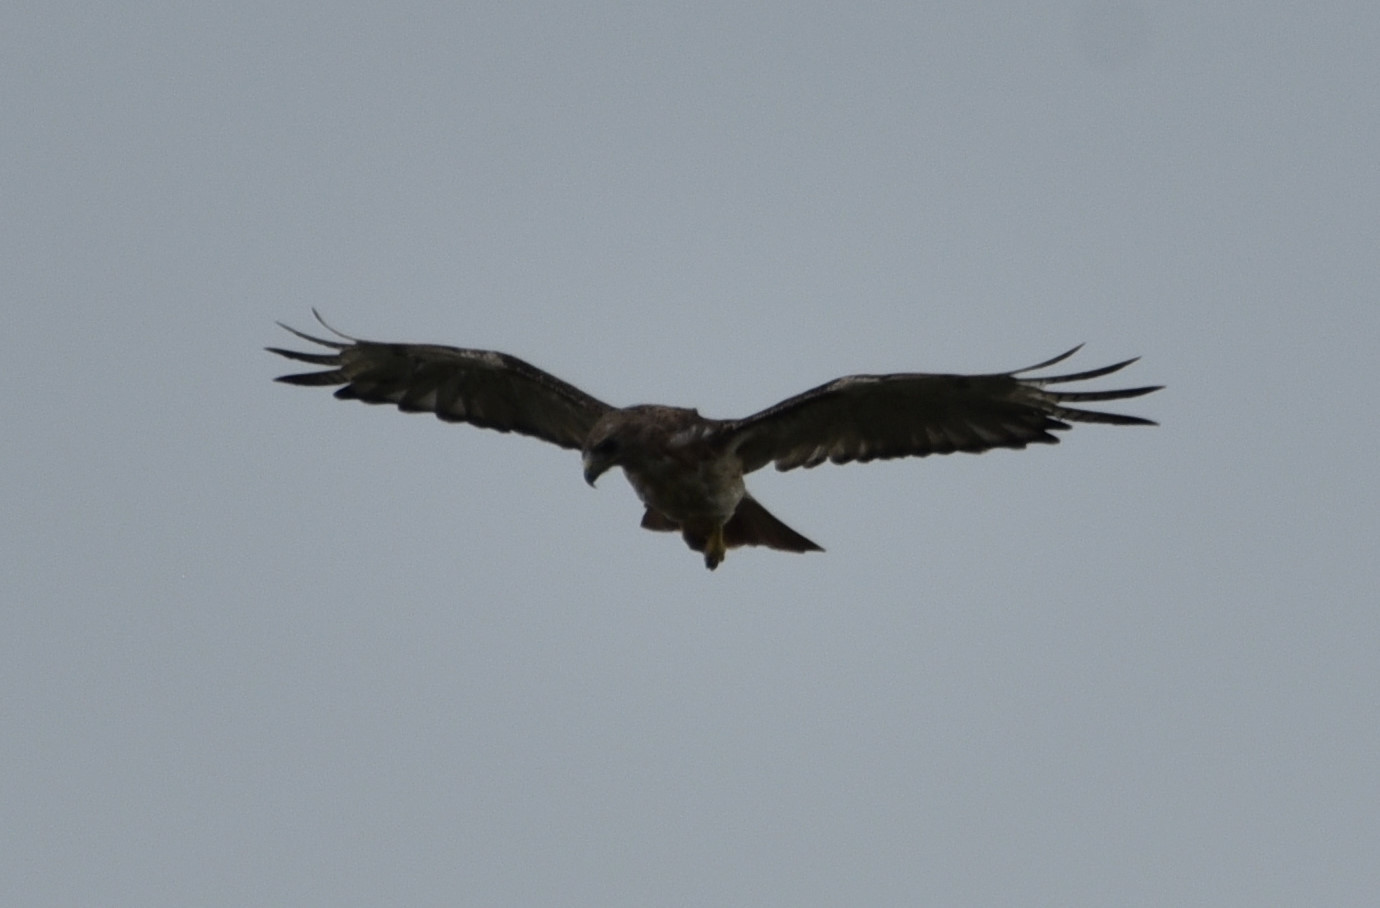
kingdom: Animalia
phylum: Chordata
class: Aves
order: Accipitriformes
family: Accipitridae
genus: Buteo
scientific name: Buteo jamaicensis
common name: Red-tailed hawk
